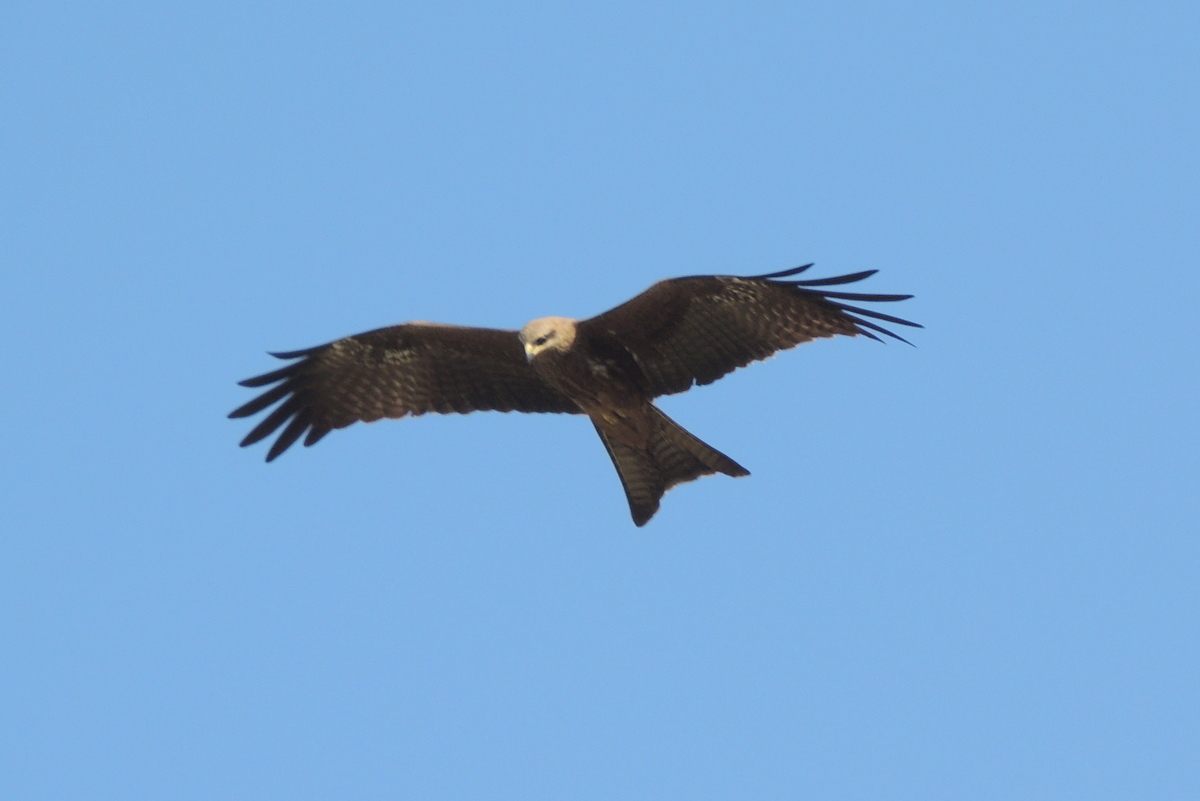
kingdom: Animalia
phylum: Chordata
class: Aves
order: Accipitriformes
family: Accipitridae
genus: Milvus
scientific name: Milvus migrans
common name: Black kite
